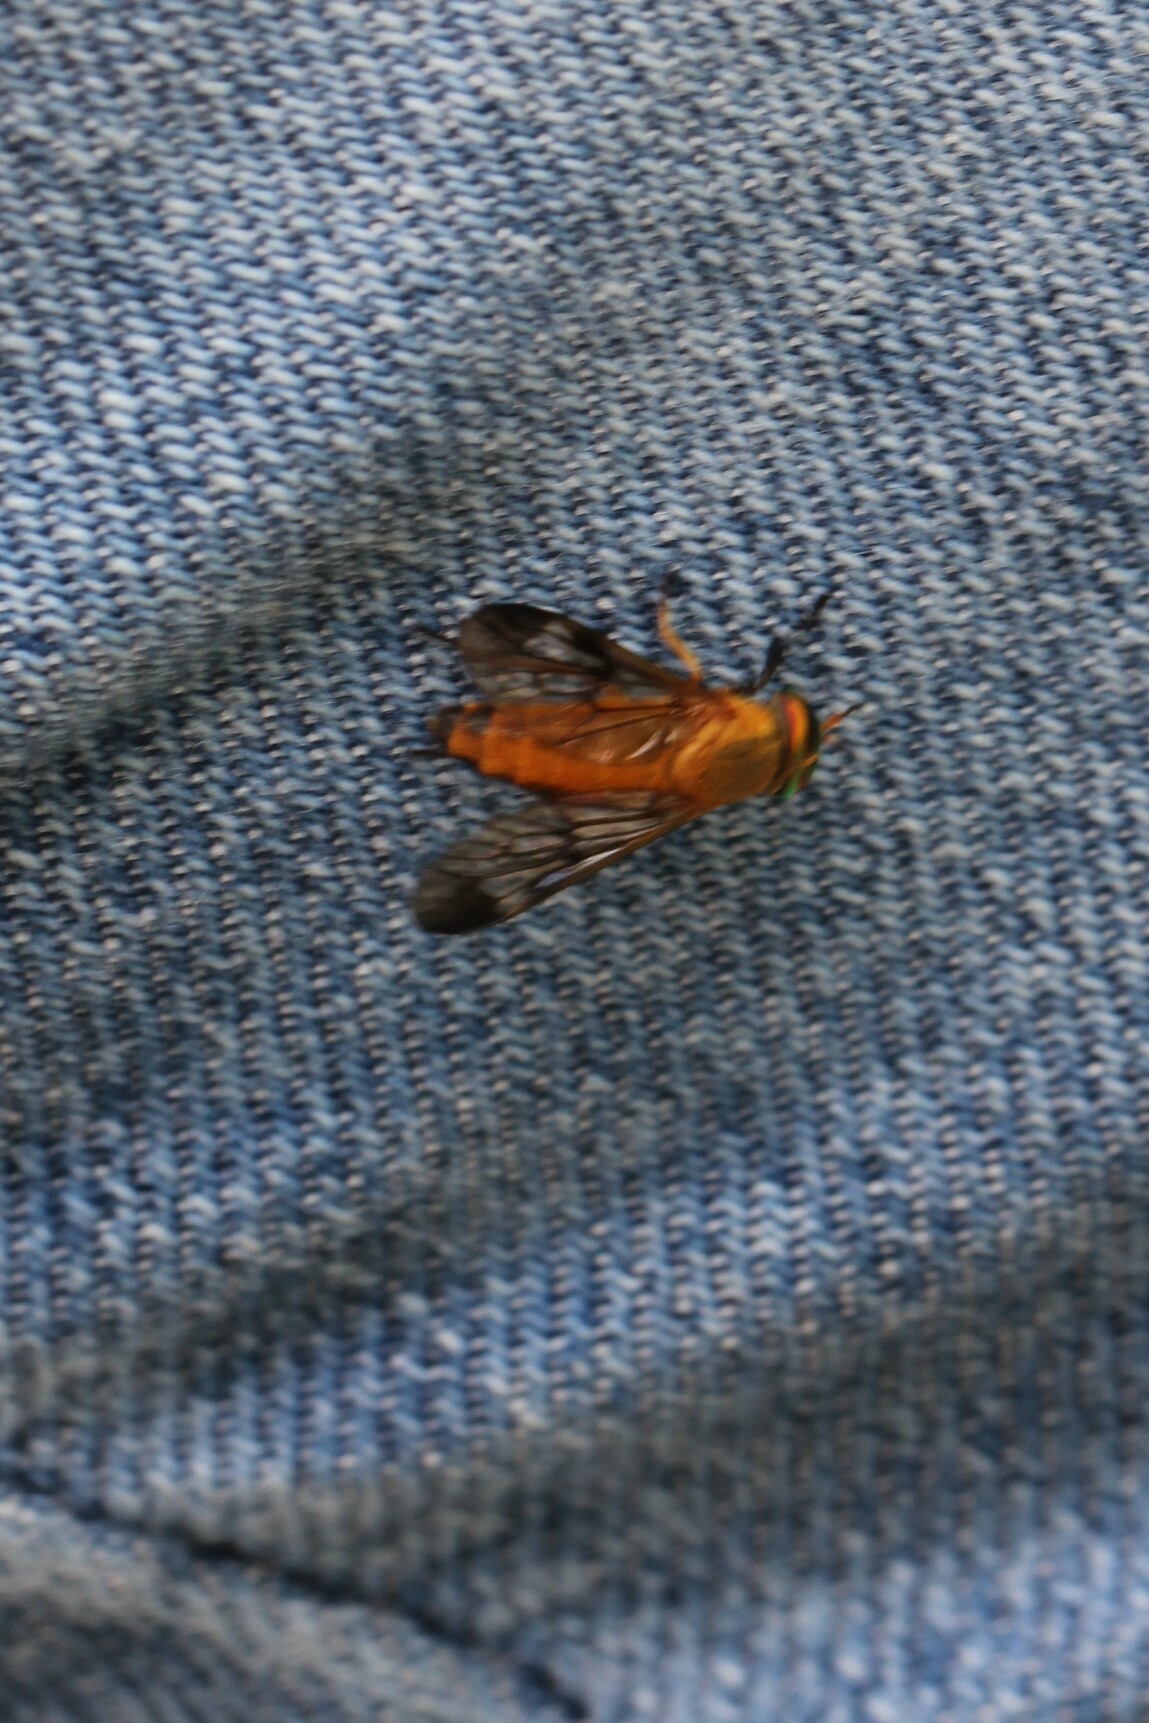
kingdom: Animalia
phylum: Arthropoda
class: Insecta
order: Diptera
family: Tabanidae
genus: Diachlorus
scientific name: Diachlorus ferrugatus
